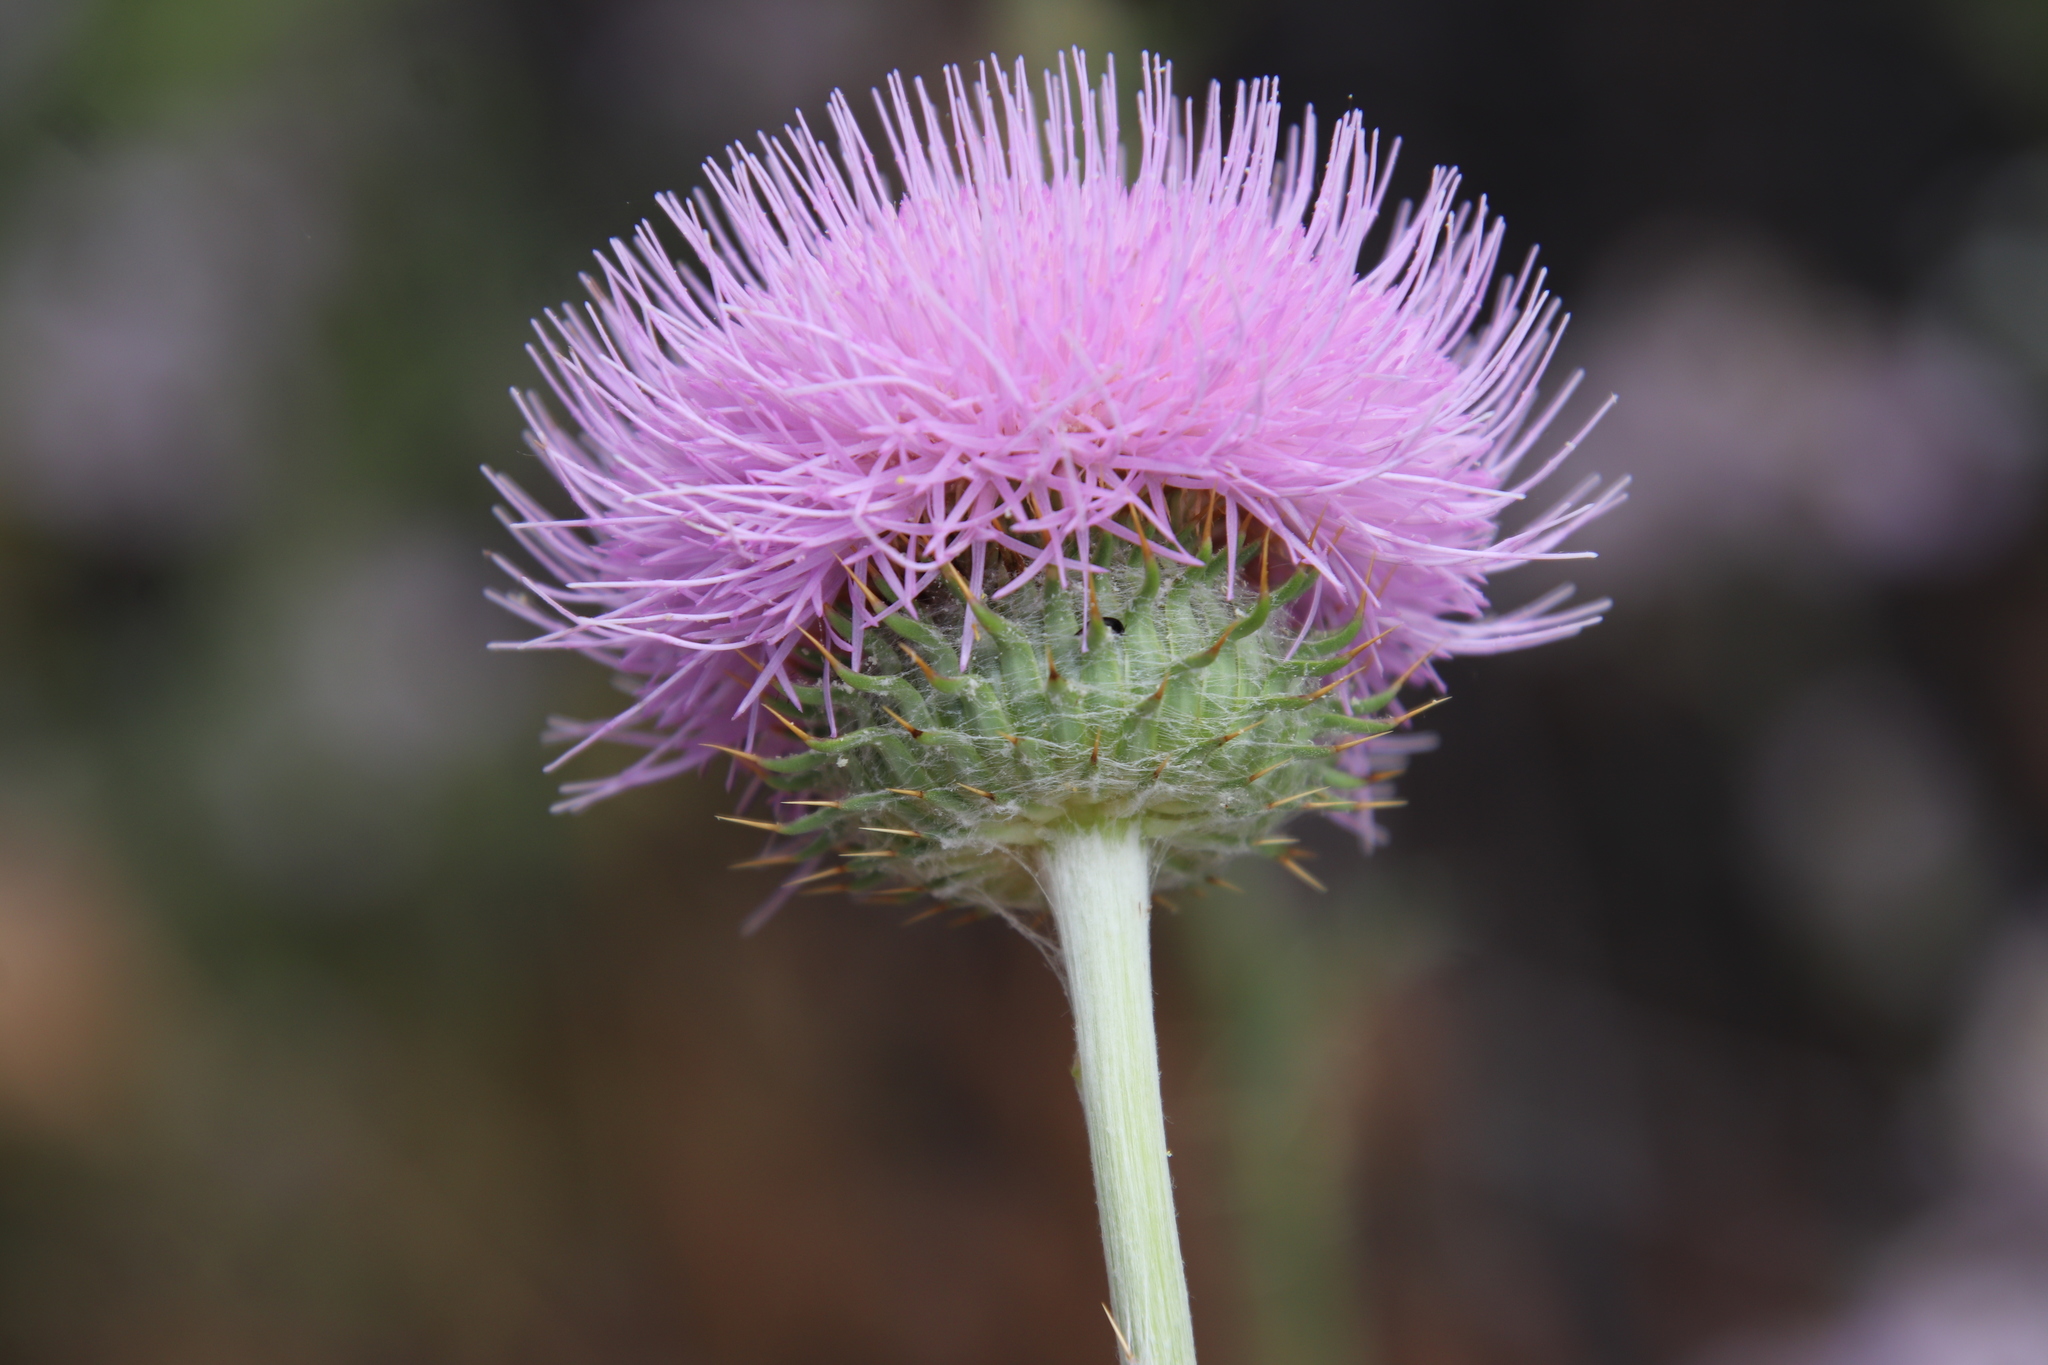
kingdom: Plantae
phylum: Tracheophyta
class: Magnoliopsida
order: Asterales
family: Asteraceae
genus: Cirsium
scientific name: Cirsium occidentale
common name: Western thistle
